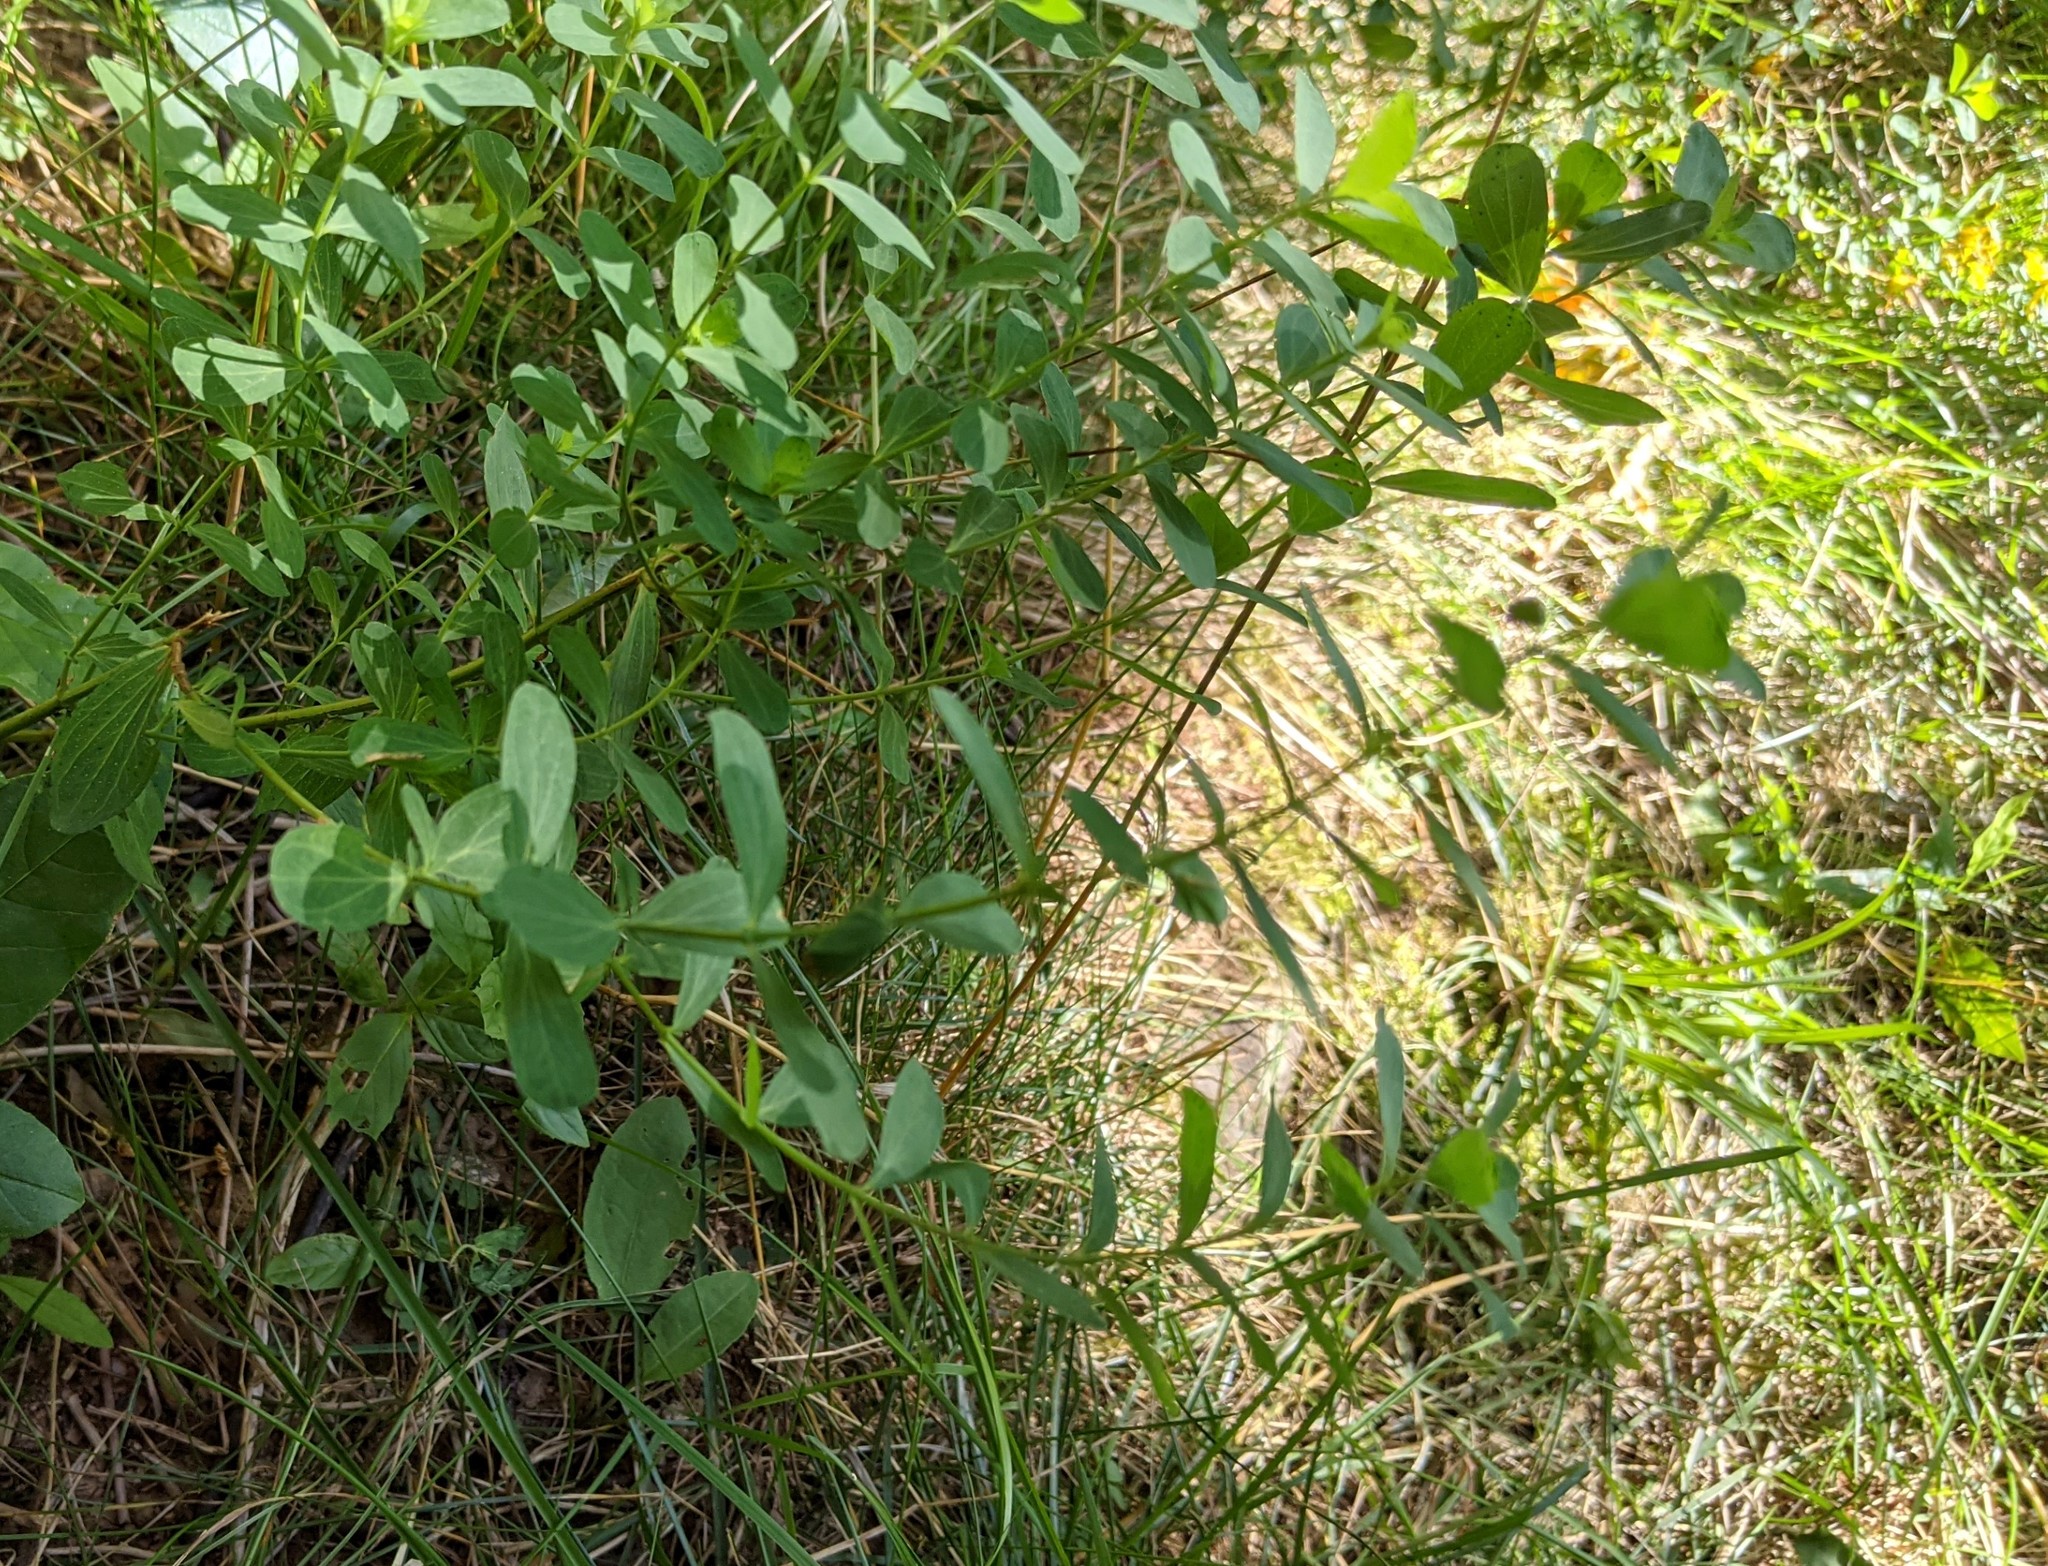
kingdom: Plantae
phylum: Tracheophyta
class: Magnoliopsida
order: Malpighiales
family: Hypericaceae
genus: Hypericum
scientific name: Hypericum perforatum
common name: Common st. johnswort
